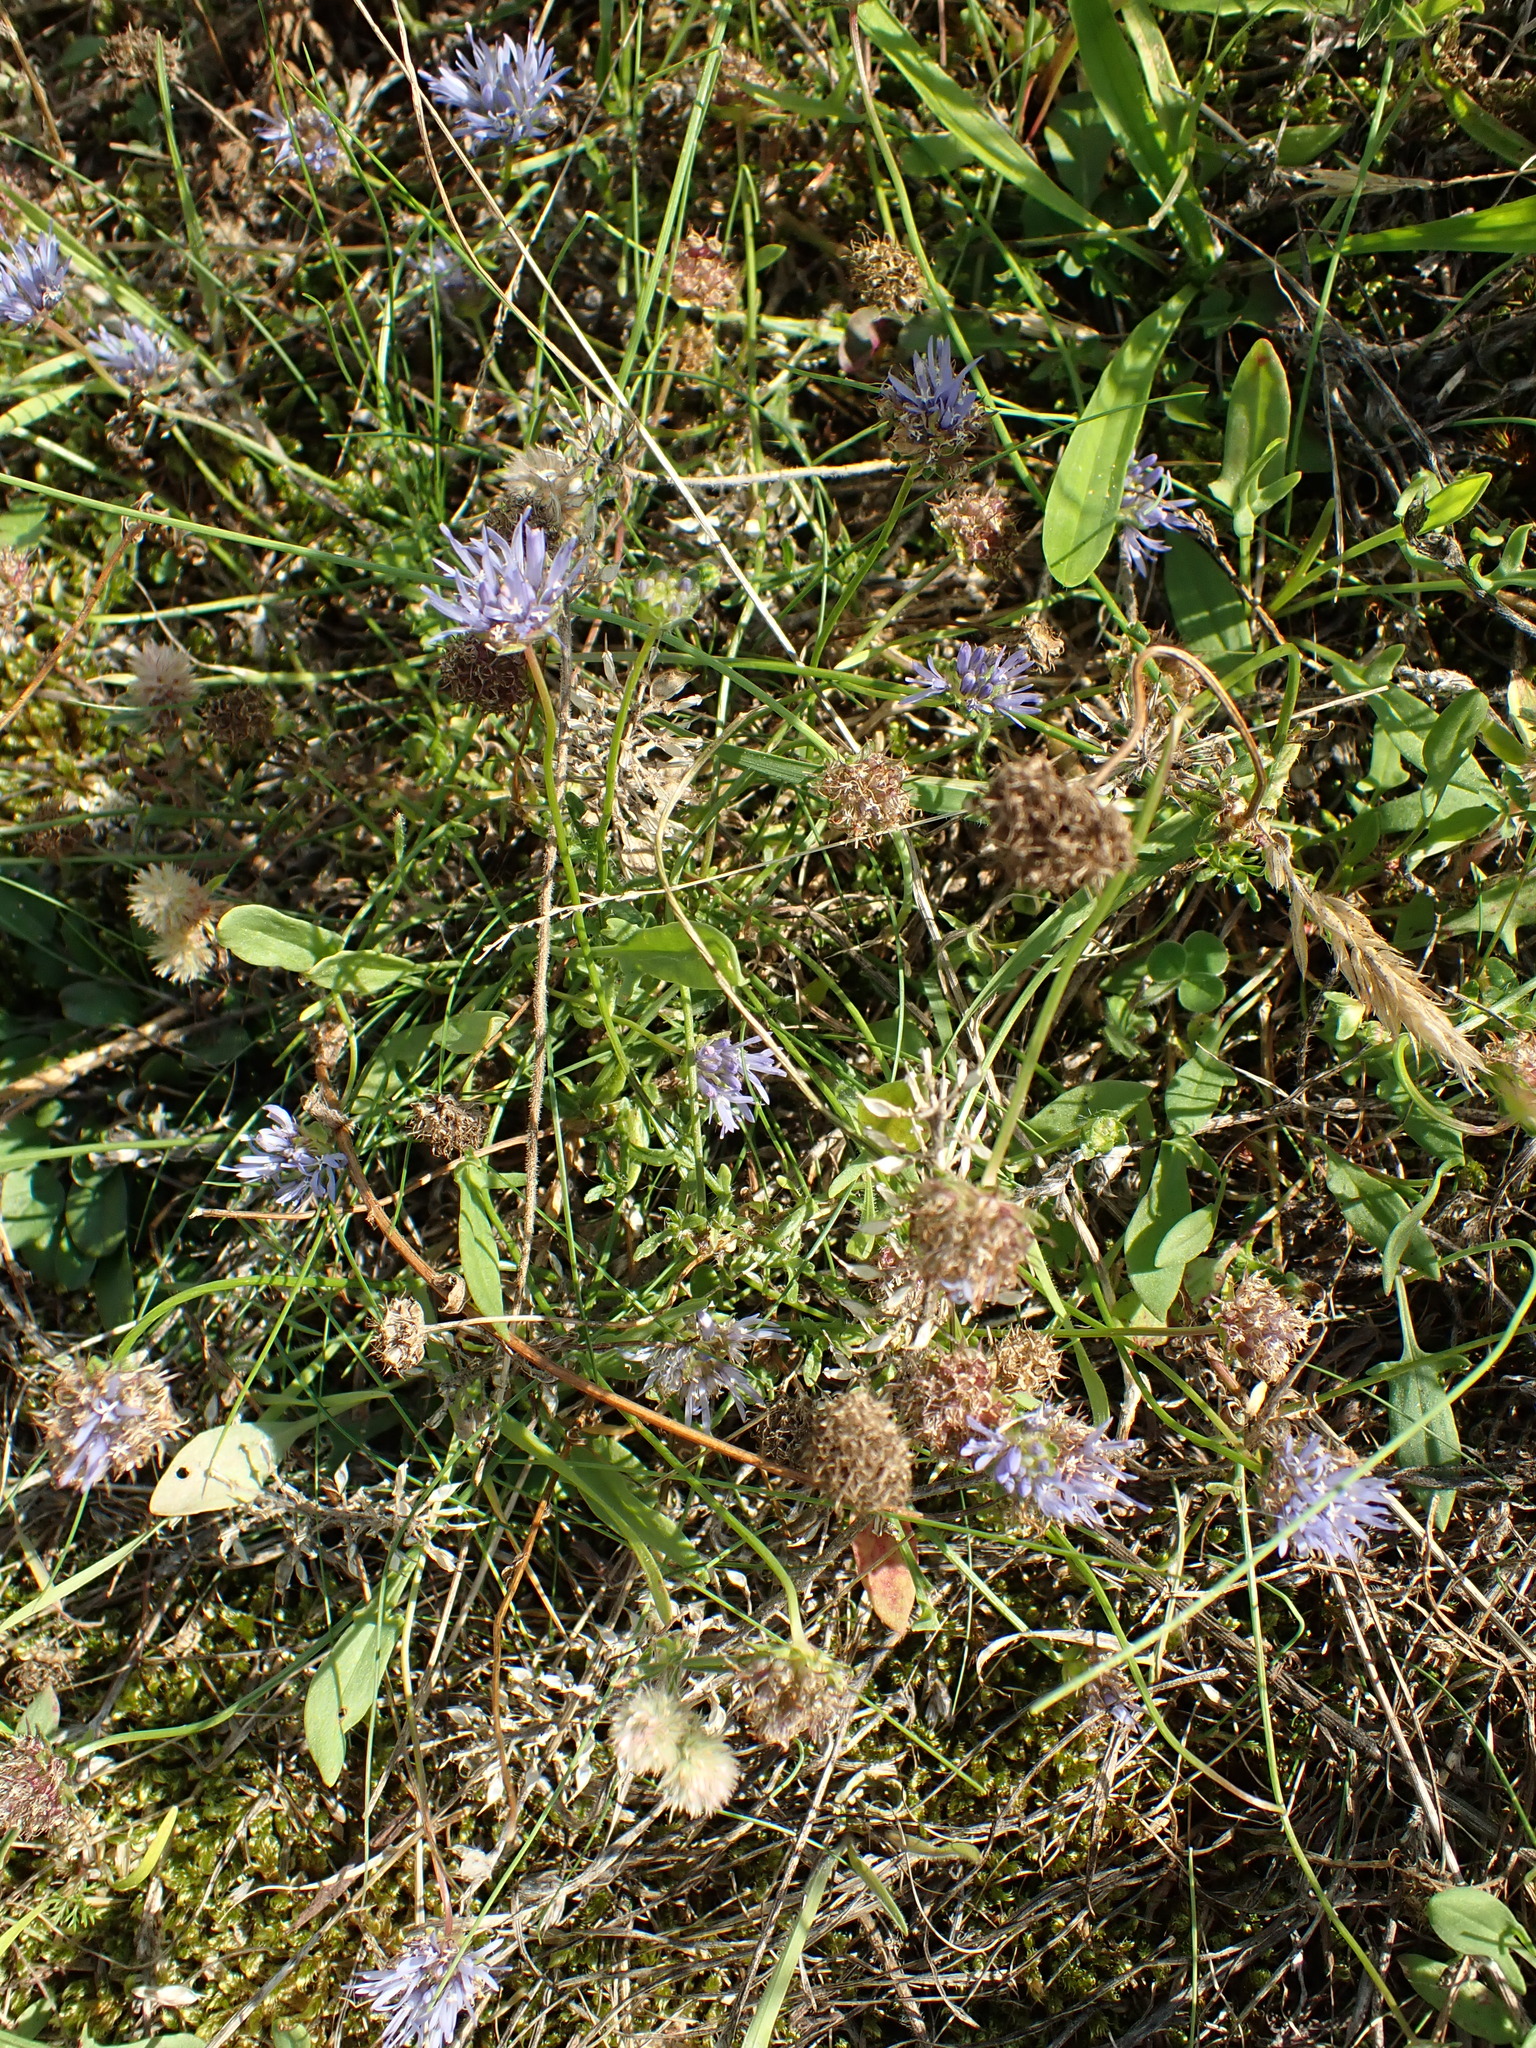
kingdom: Plantae
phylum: Tracheophyta
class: Magnoliopsida
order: Asterales
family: Campanulaceae
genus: Jasione
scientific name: Jasione montana
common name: Sheep's-bit
